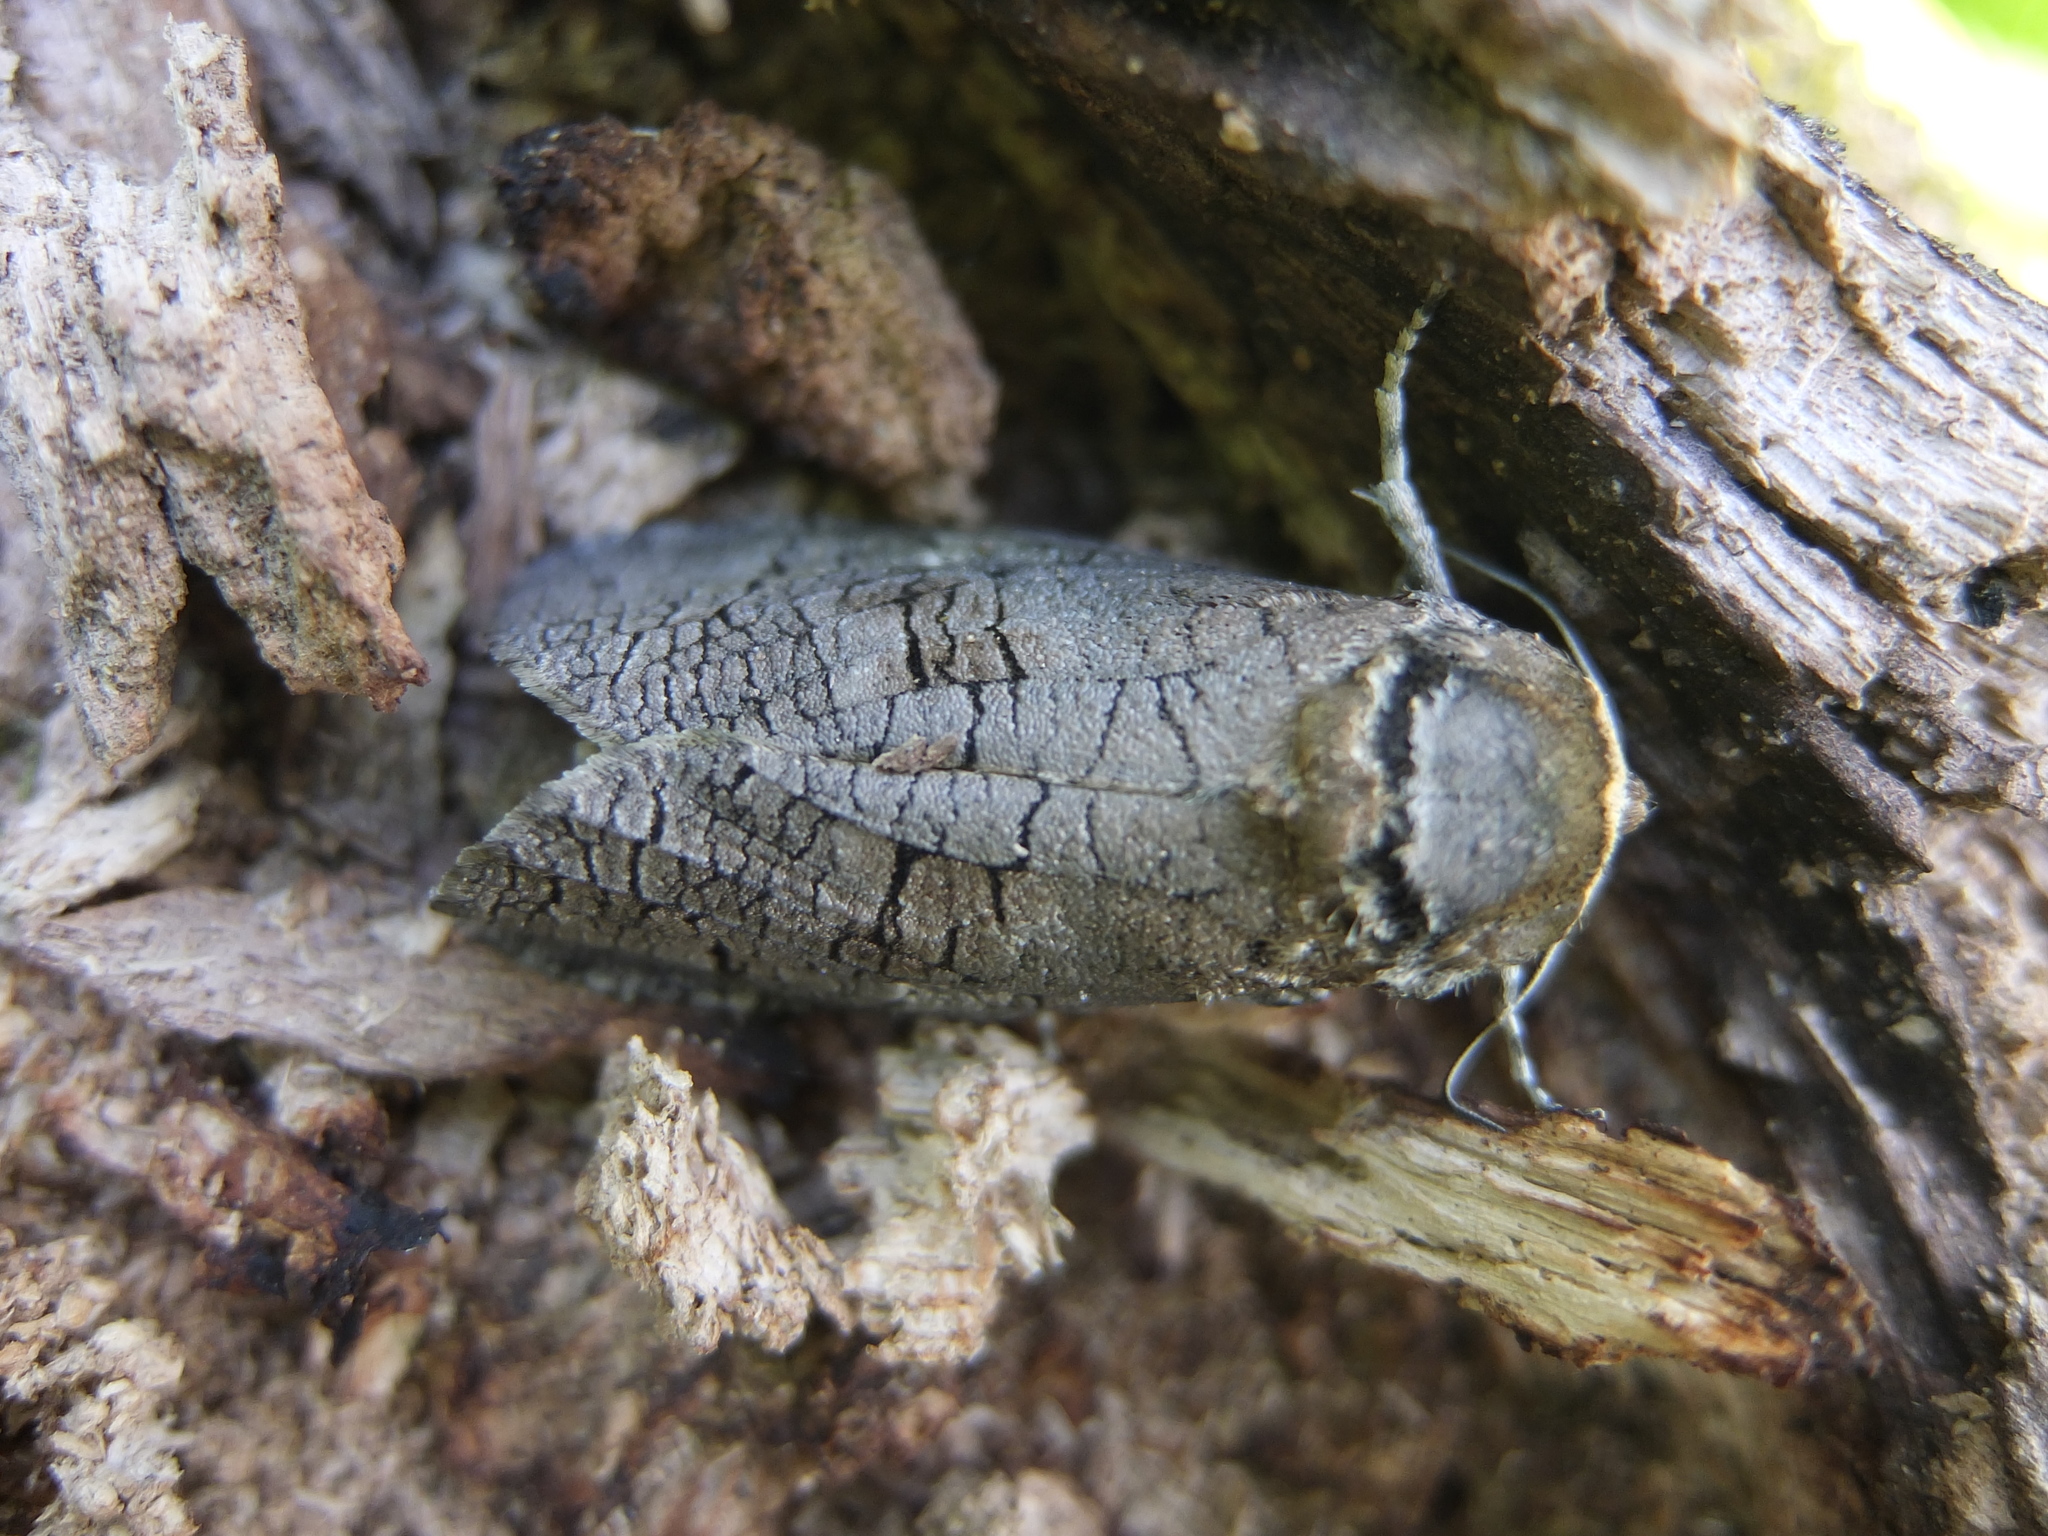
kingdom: Animalia
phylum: Arthropoda
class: Insecta
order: Lepidoptera
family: Cossidae
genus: Cossus
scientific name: Cossus cossus
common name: Goat moth
